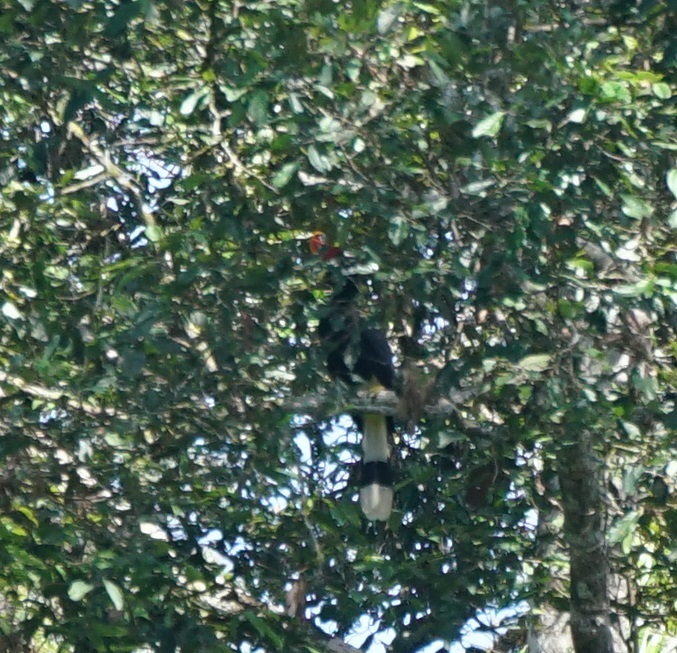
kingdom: Animalia
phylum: Chordata
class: Aves
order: Bucerotiformes
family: Bucerotidae
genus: Buceros
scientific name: Buceros rhinoceros
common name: Rhinoceros hornbill
